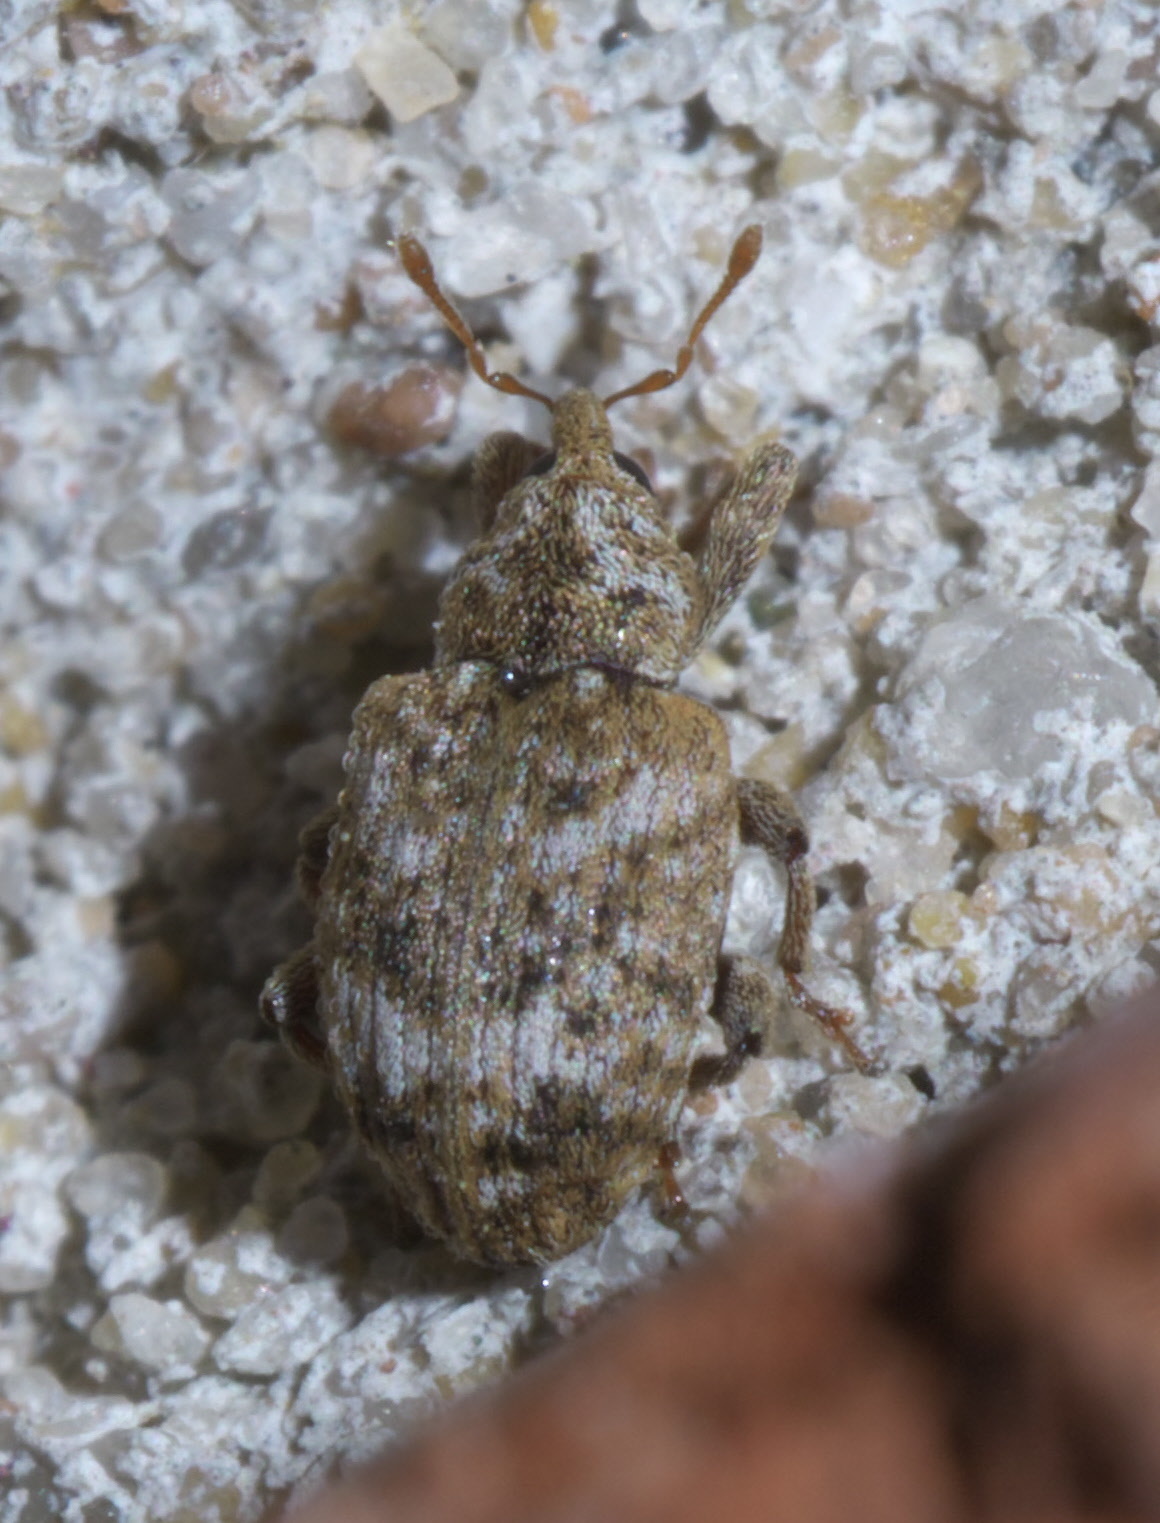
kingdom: Animalia
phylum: Arthropoda
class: Insecta
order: Coleoptera
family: Curculionidae
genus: Conotrachelus
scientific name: Conotrachelus recessus
